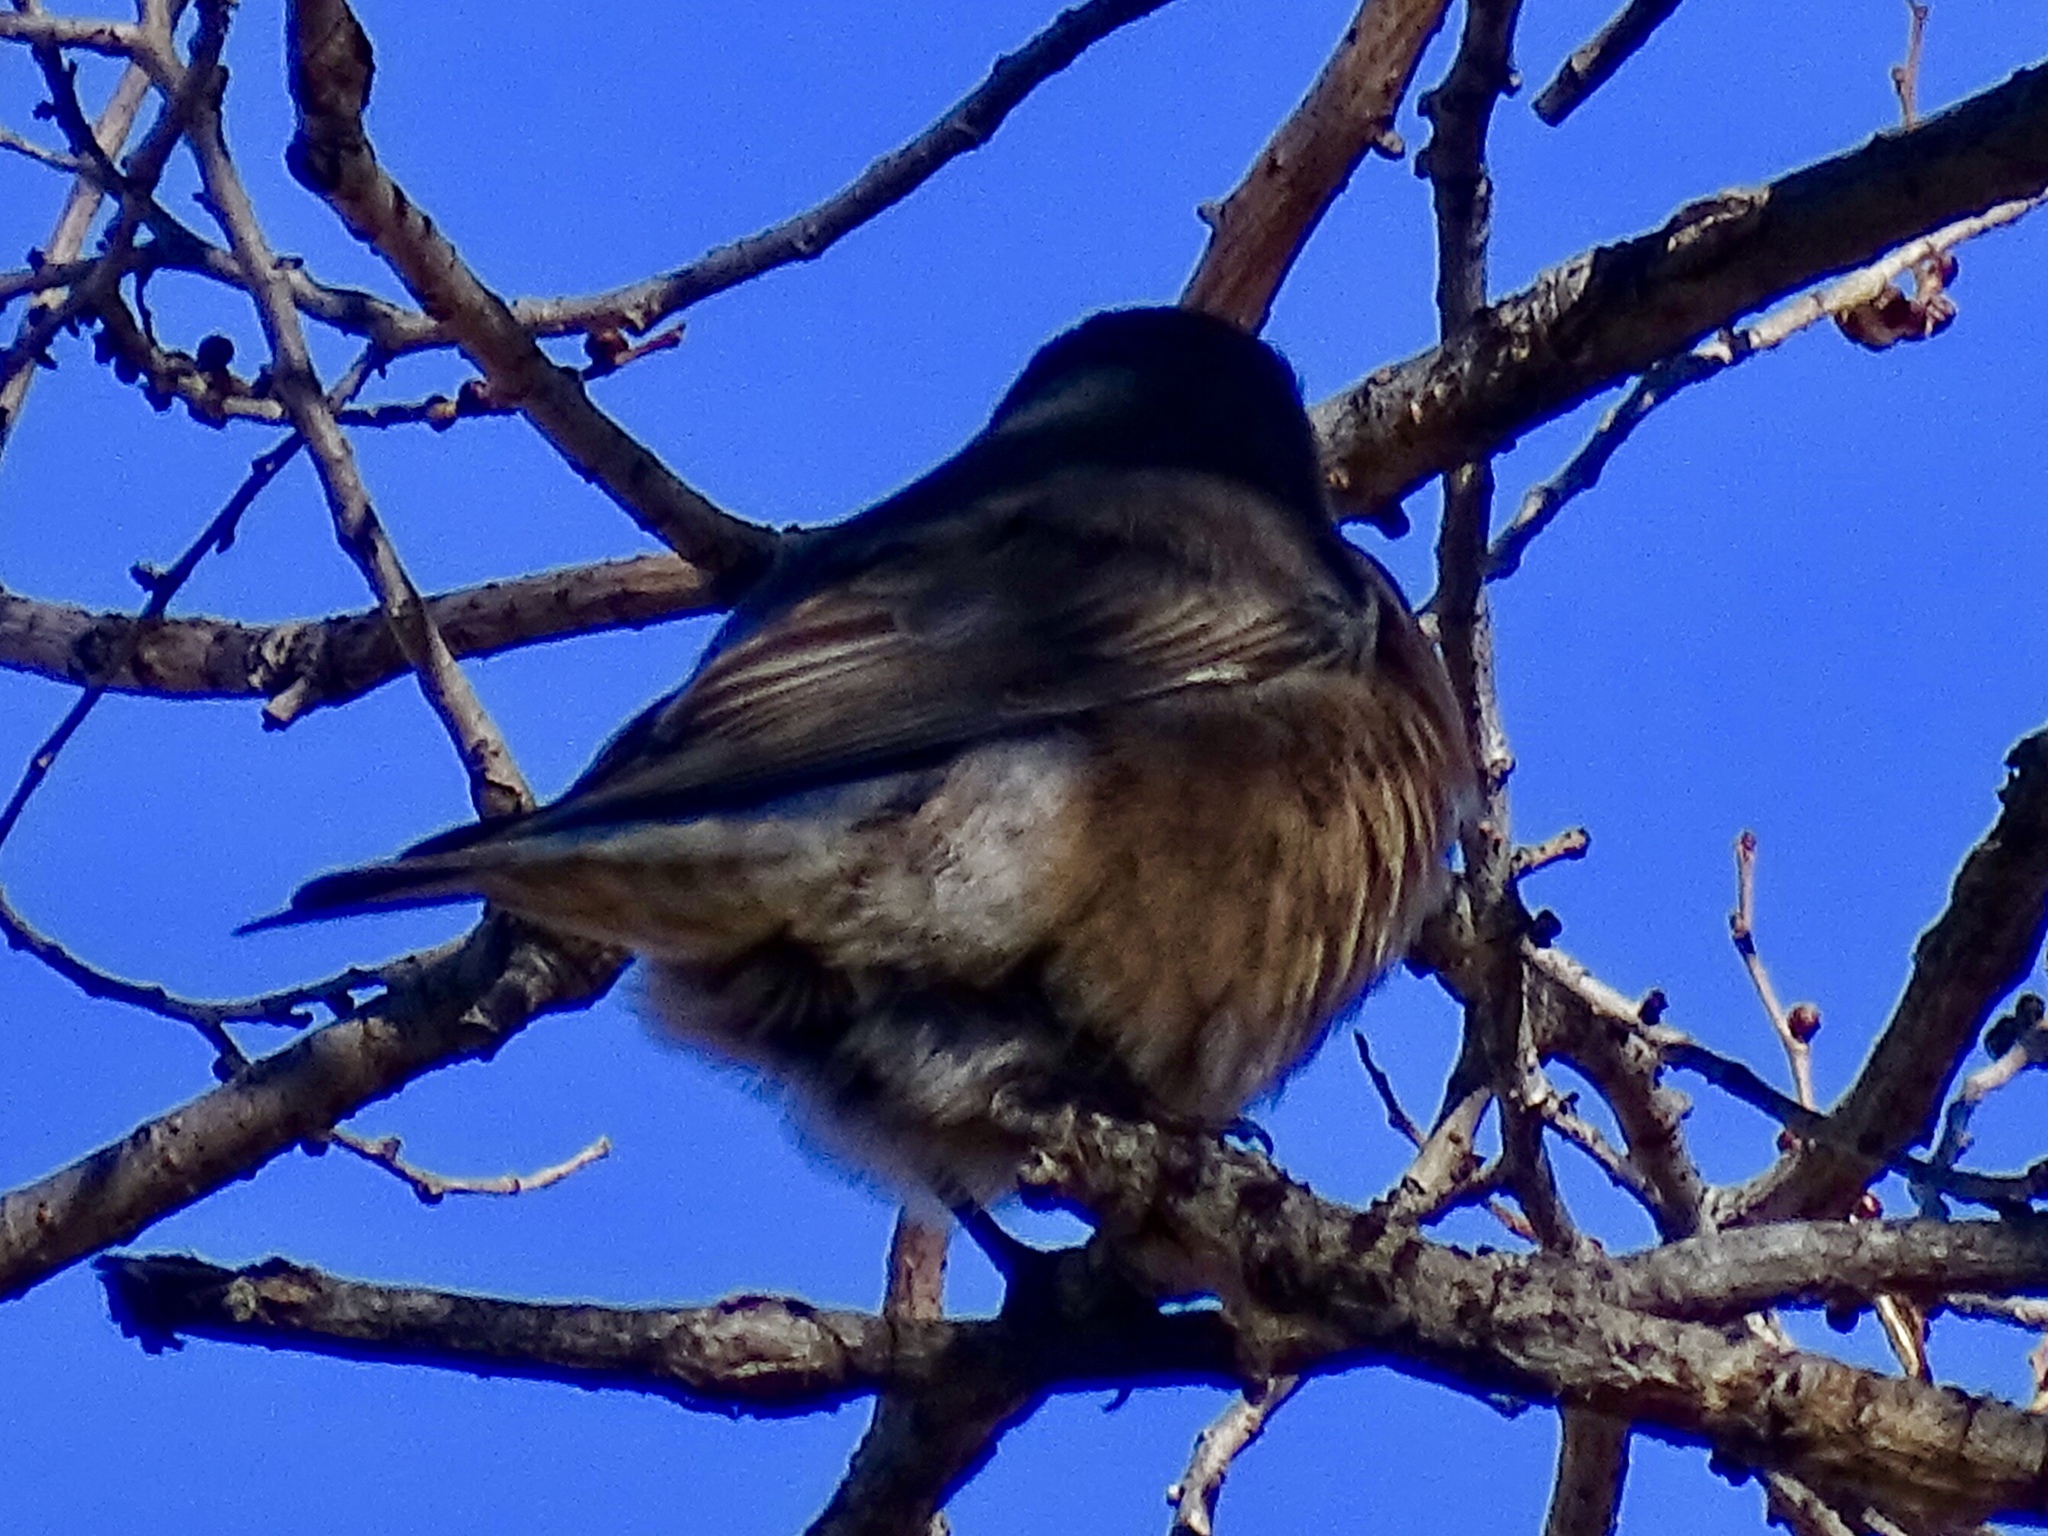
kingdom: Animalia
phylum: Chordata
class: Aves
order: Passeriformes
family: Turdidae
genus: Turdus
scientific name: Turdus migratorius
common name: American robin
